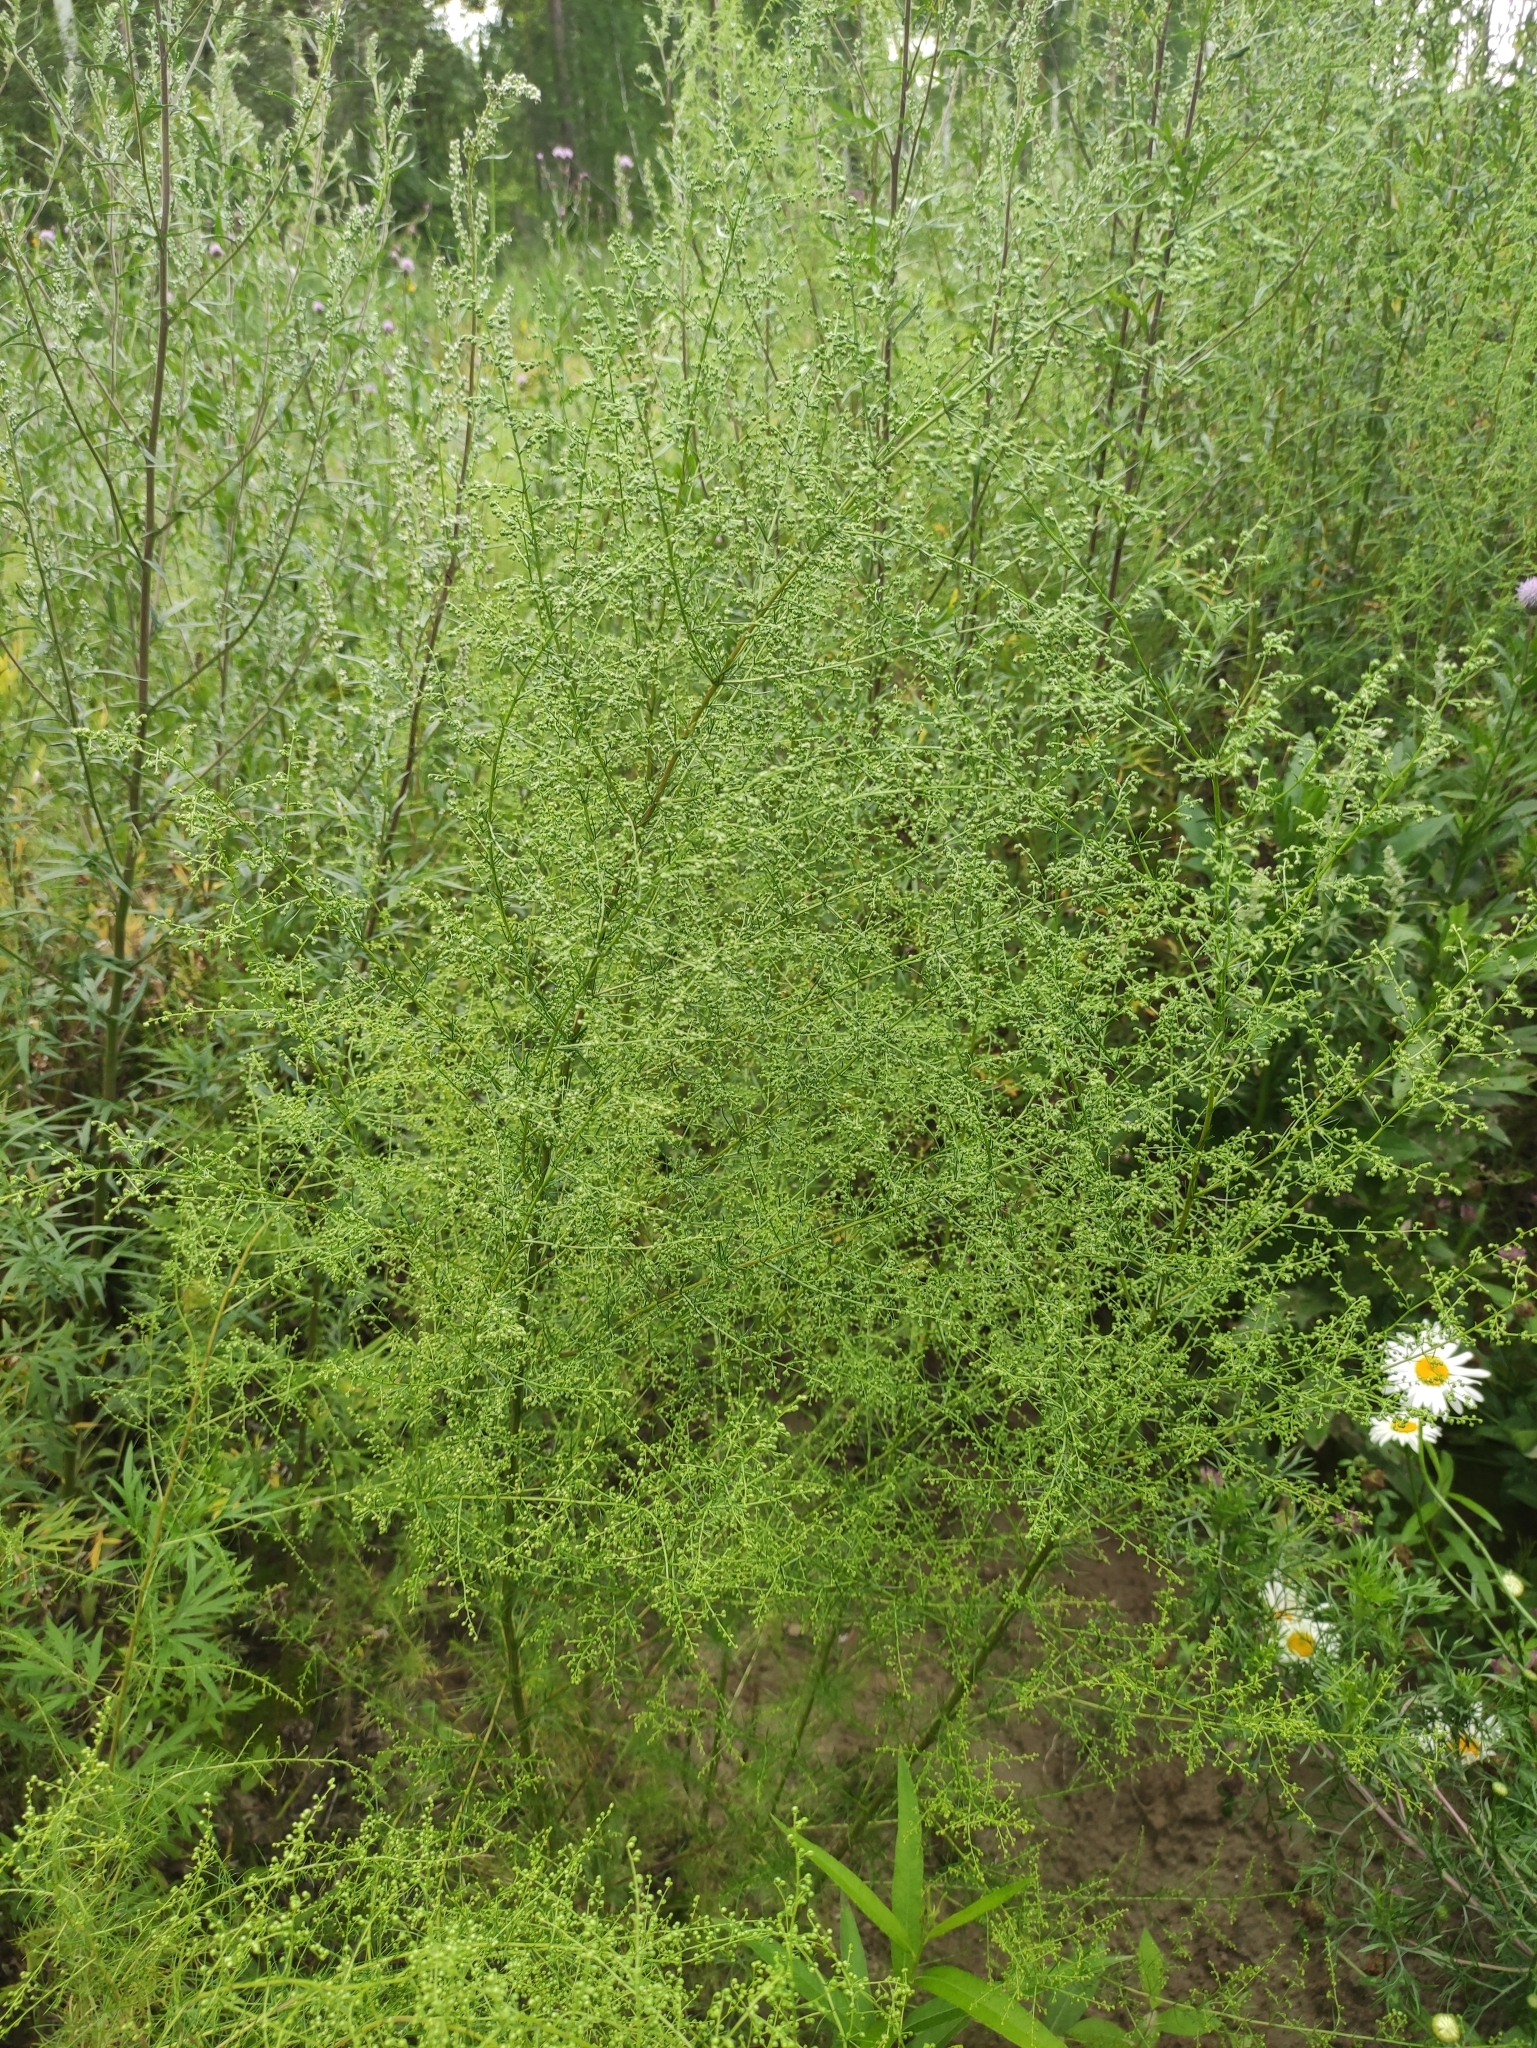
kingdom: Plantae
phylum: Tracheophyta
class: Magnoliopsida
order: Asterales
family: Asteraceae
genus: Artemisia
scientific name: Artemisia scoparia
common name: Redstem wormwood
